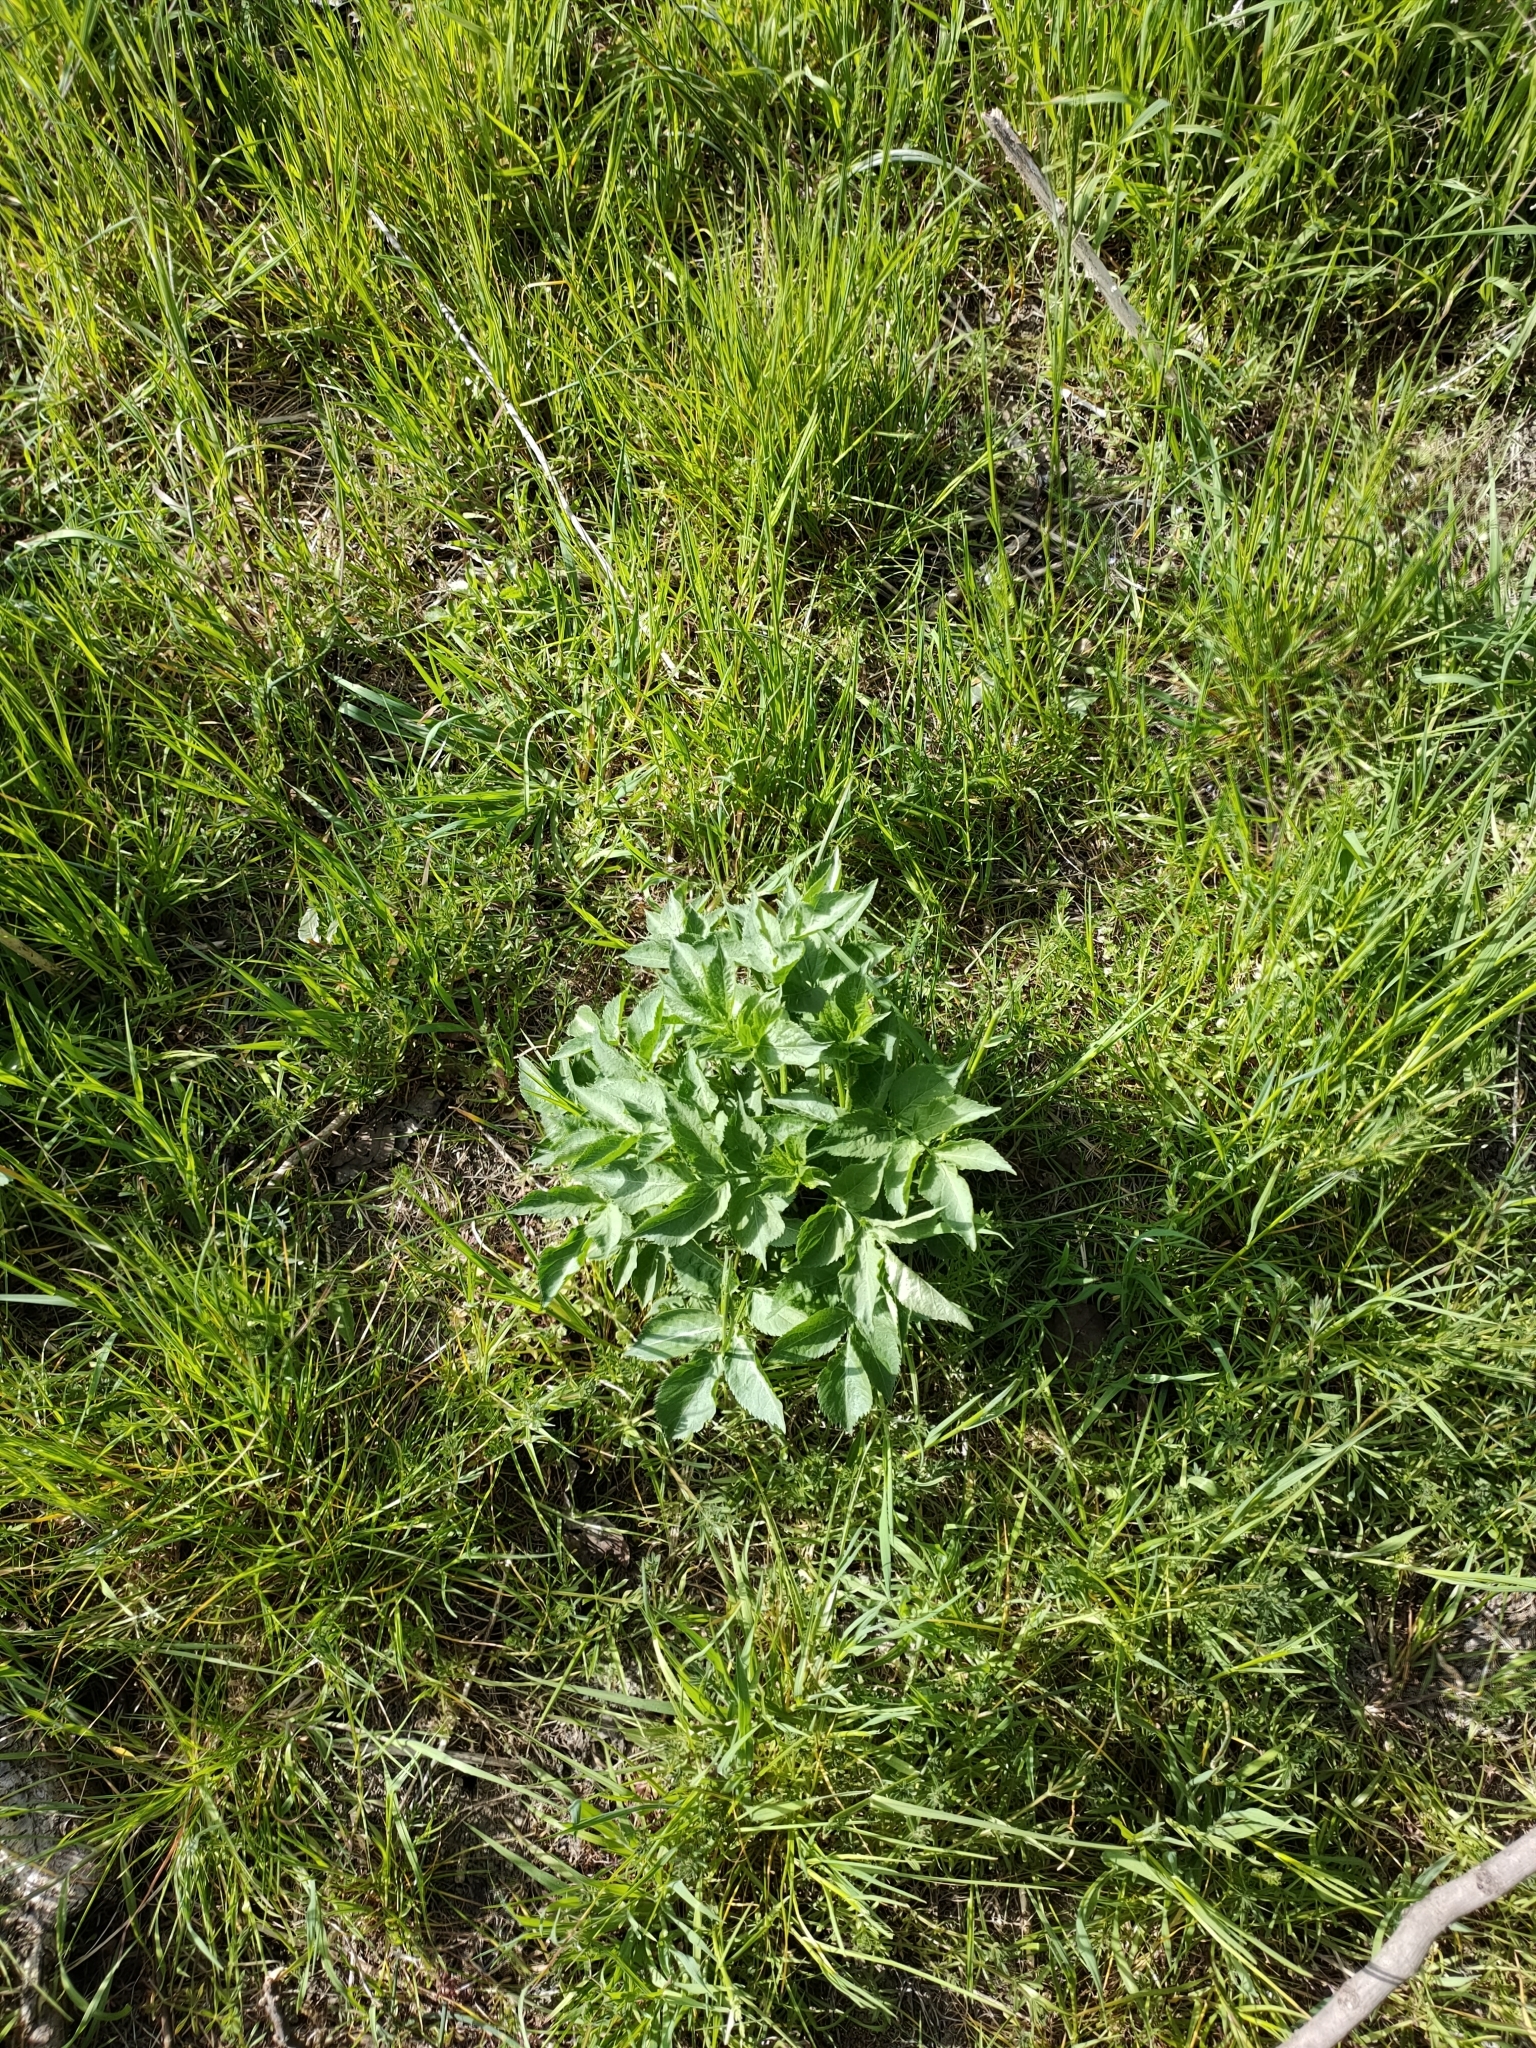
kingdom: Plantae
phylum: Tracheophyta
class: Magnoliopsida
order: Dipsacales
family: Viburnaceae
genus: Sambucus
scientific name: Sambucus nigra
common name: Elder
